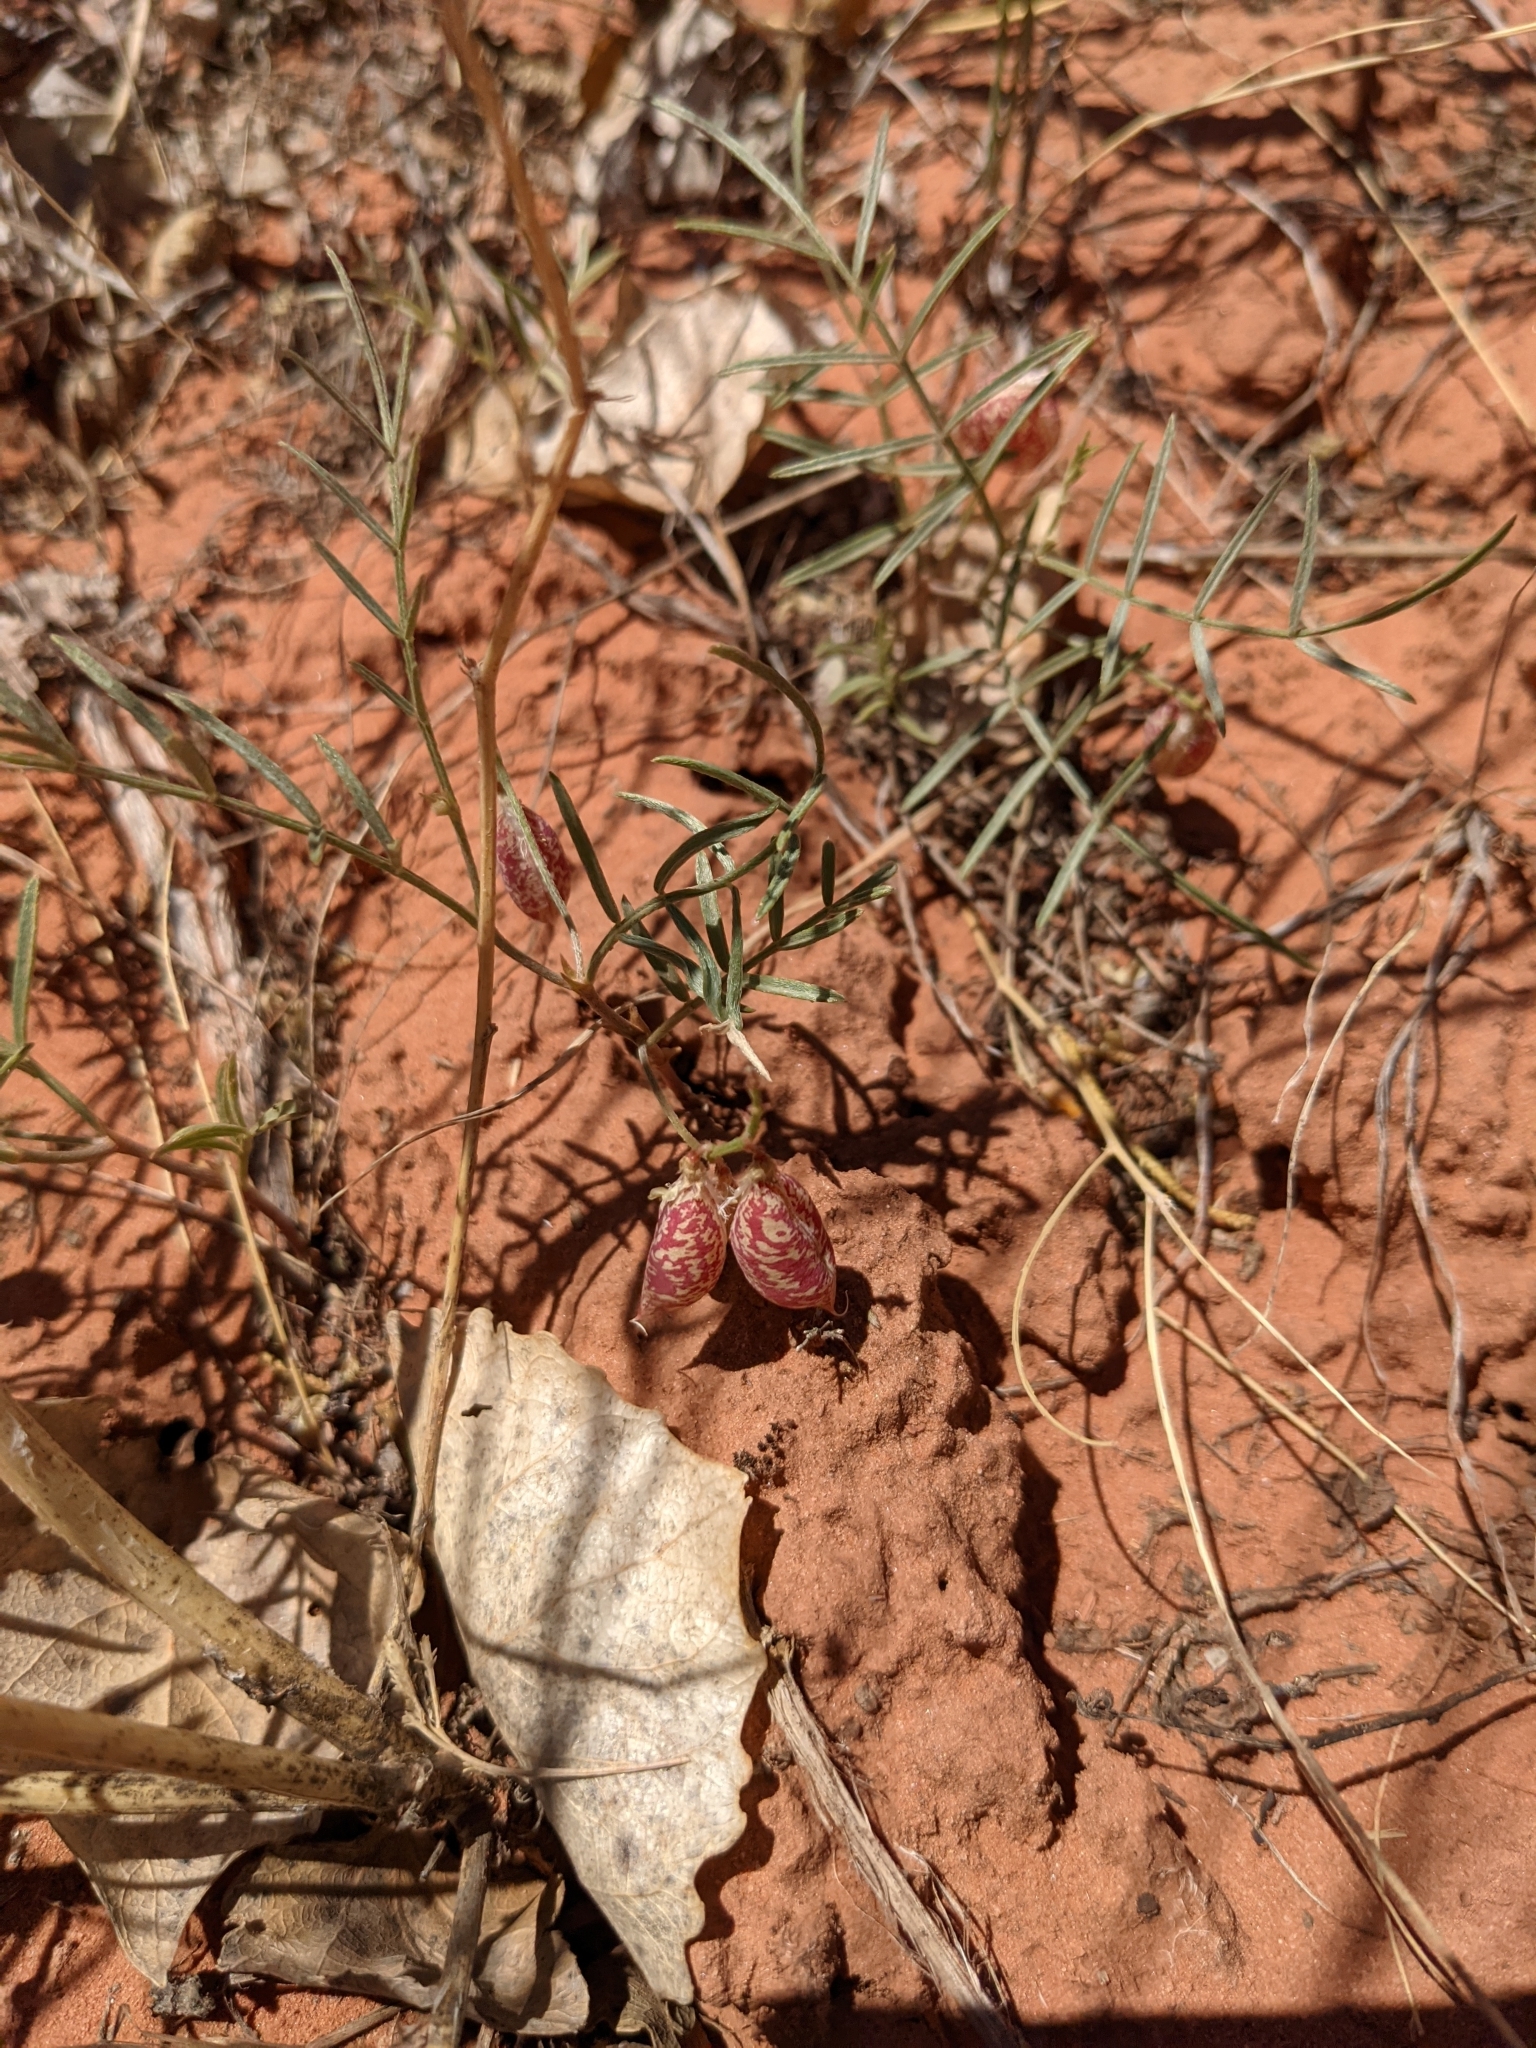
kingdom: Plantae
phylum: Tracheophyta
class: Magnoliopsida
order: Fabales
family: Fabaceae
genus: Astragalus
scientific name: Astragalus ceramicus
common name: Painted milk-vetch
